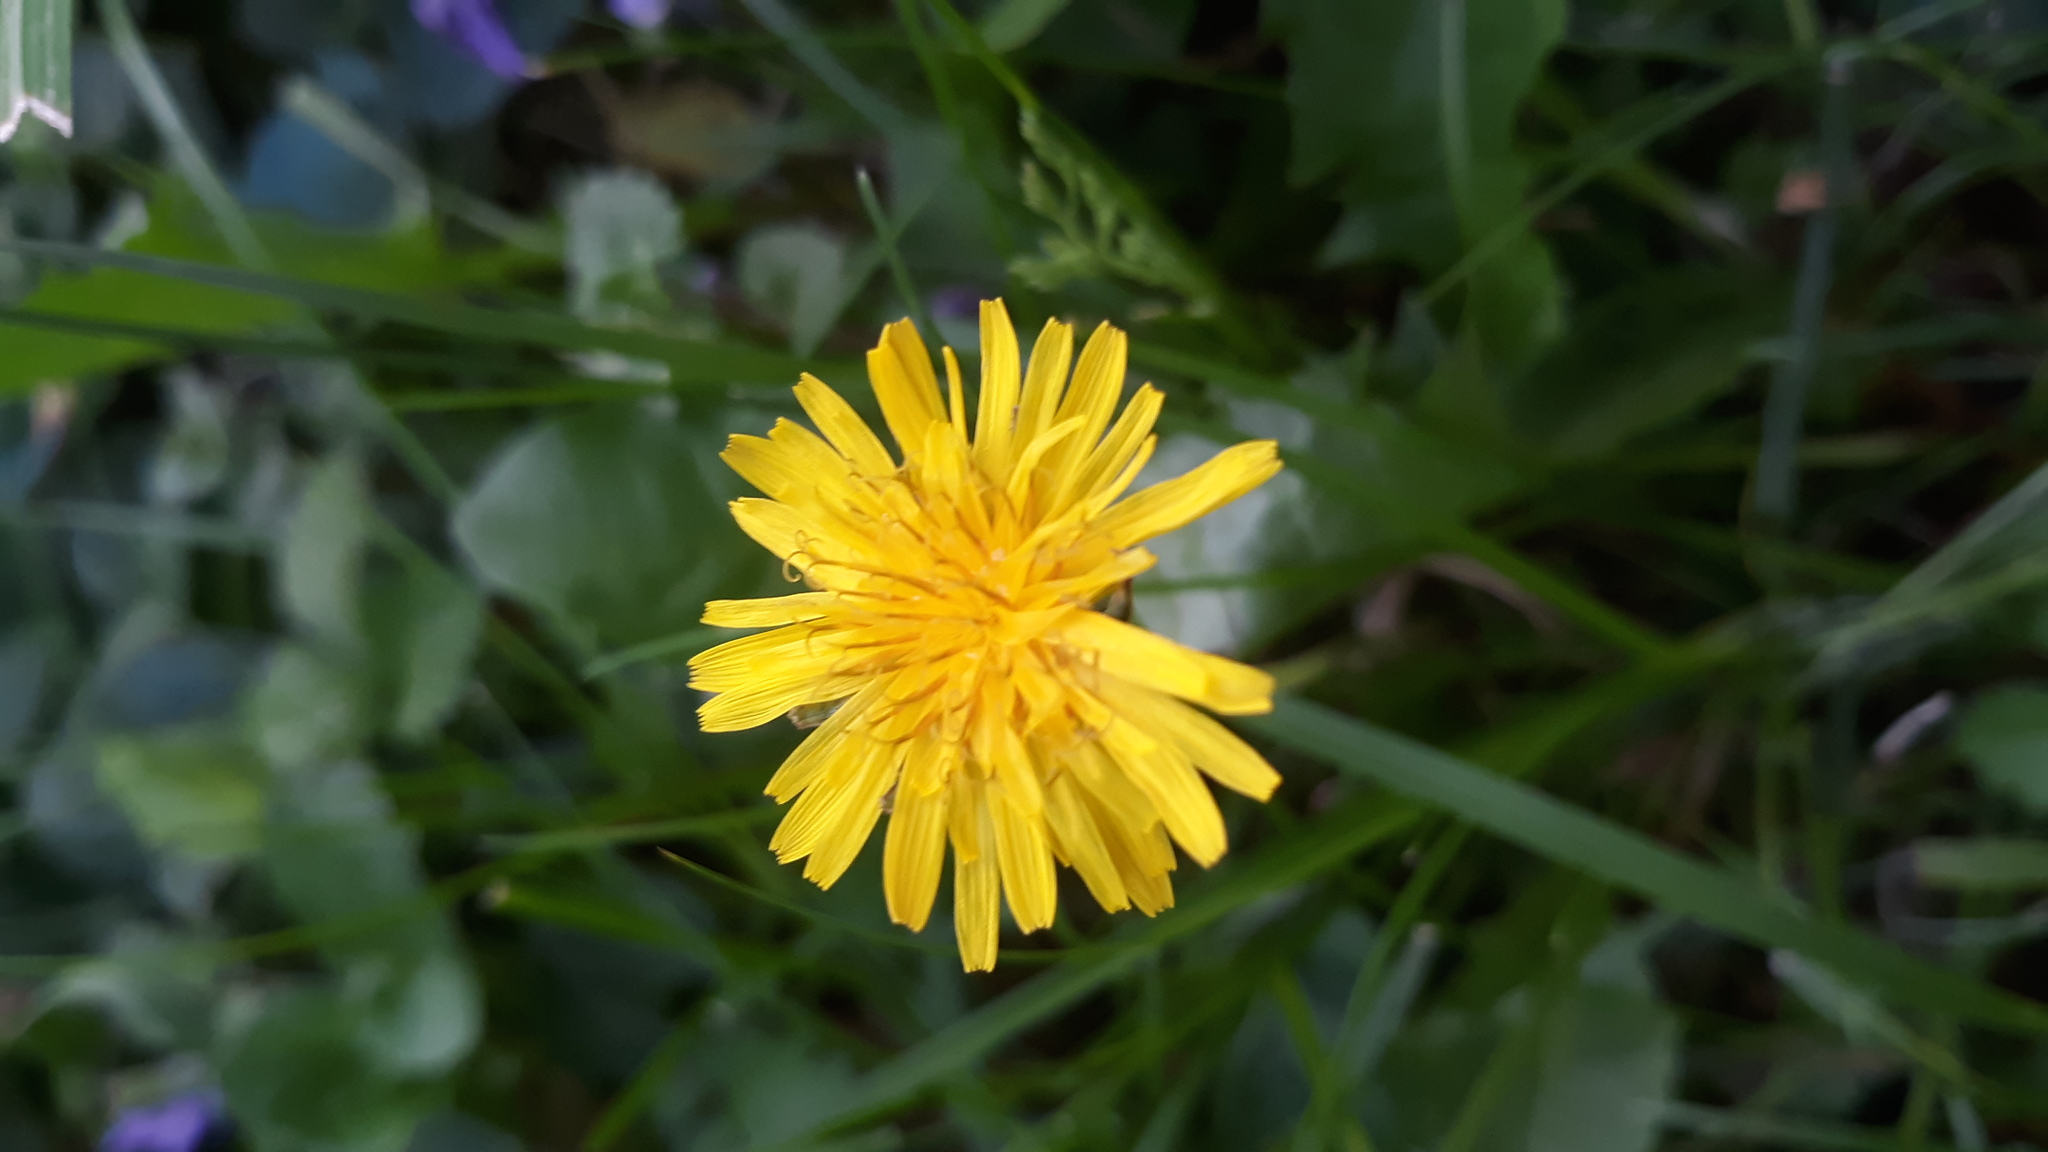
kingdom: Plantae
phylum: Tracheophyta
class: Magnoliopsida
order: Asterales
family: Asteraceae
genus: Taraxacum
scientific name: Taraxacum officinale
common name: Common dandelion
